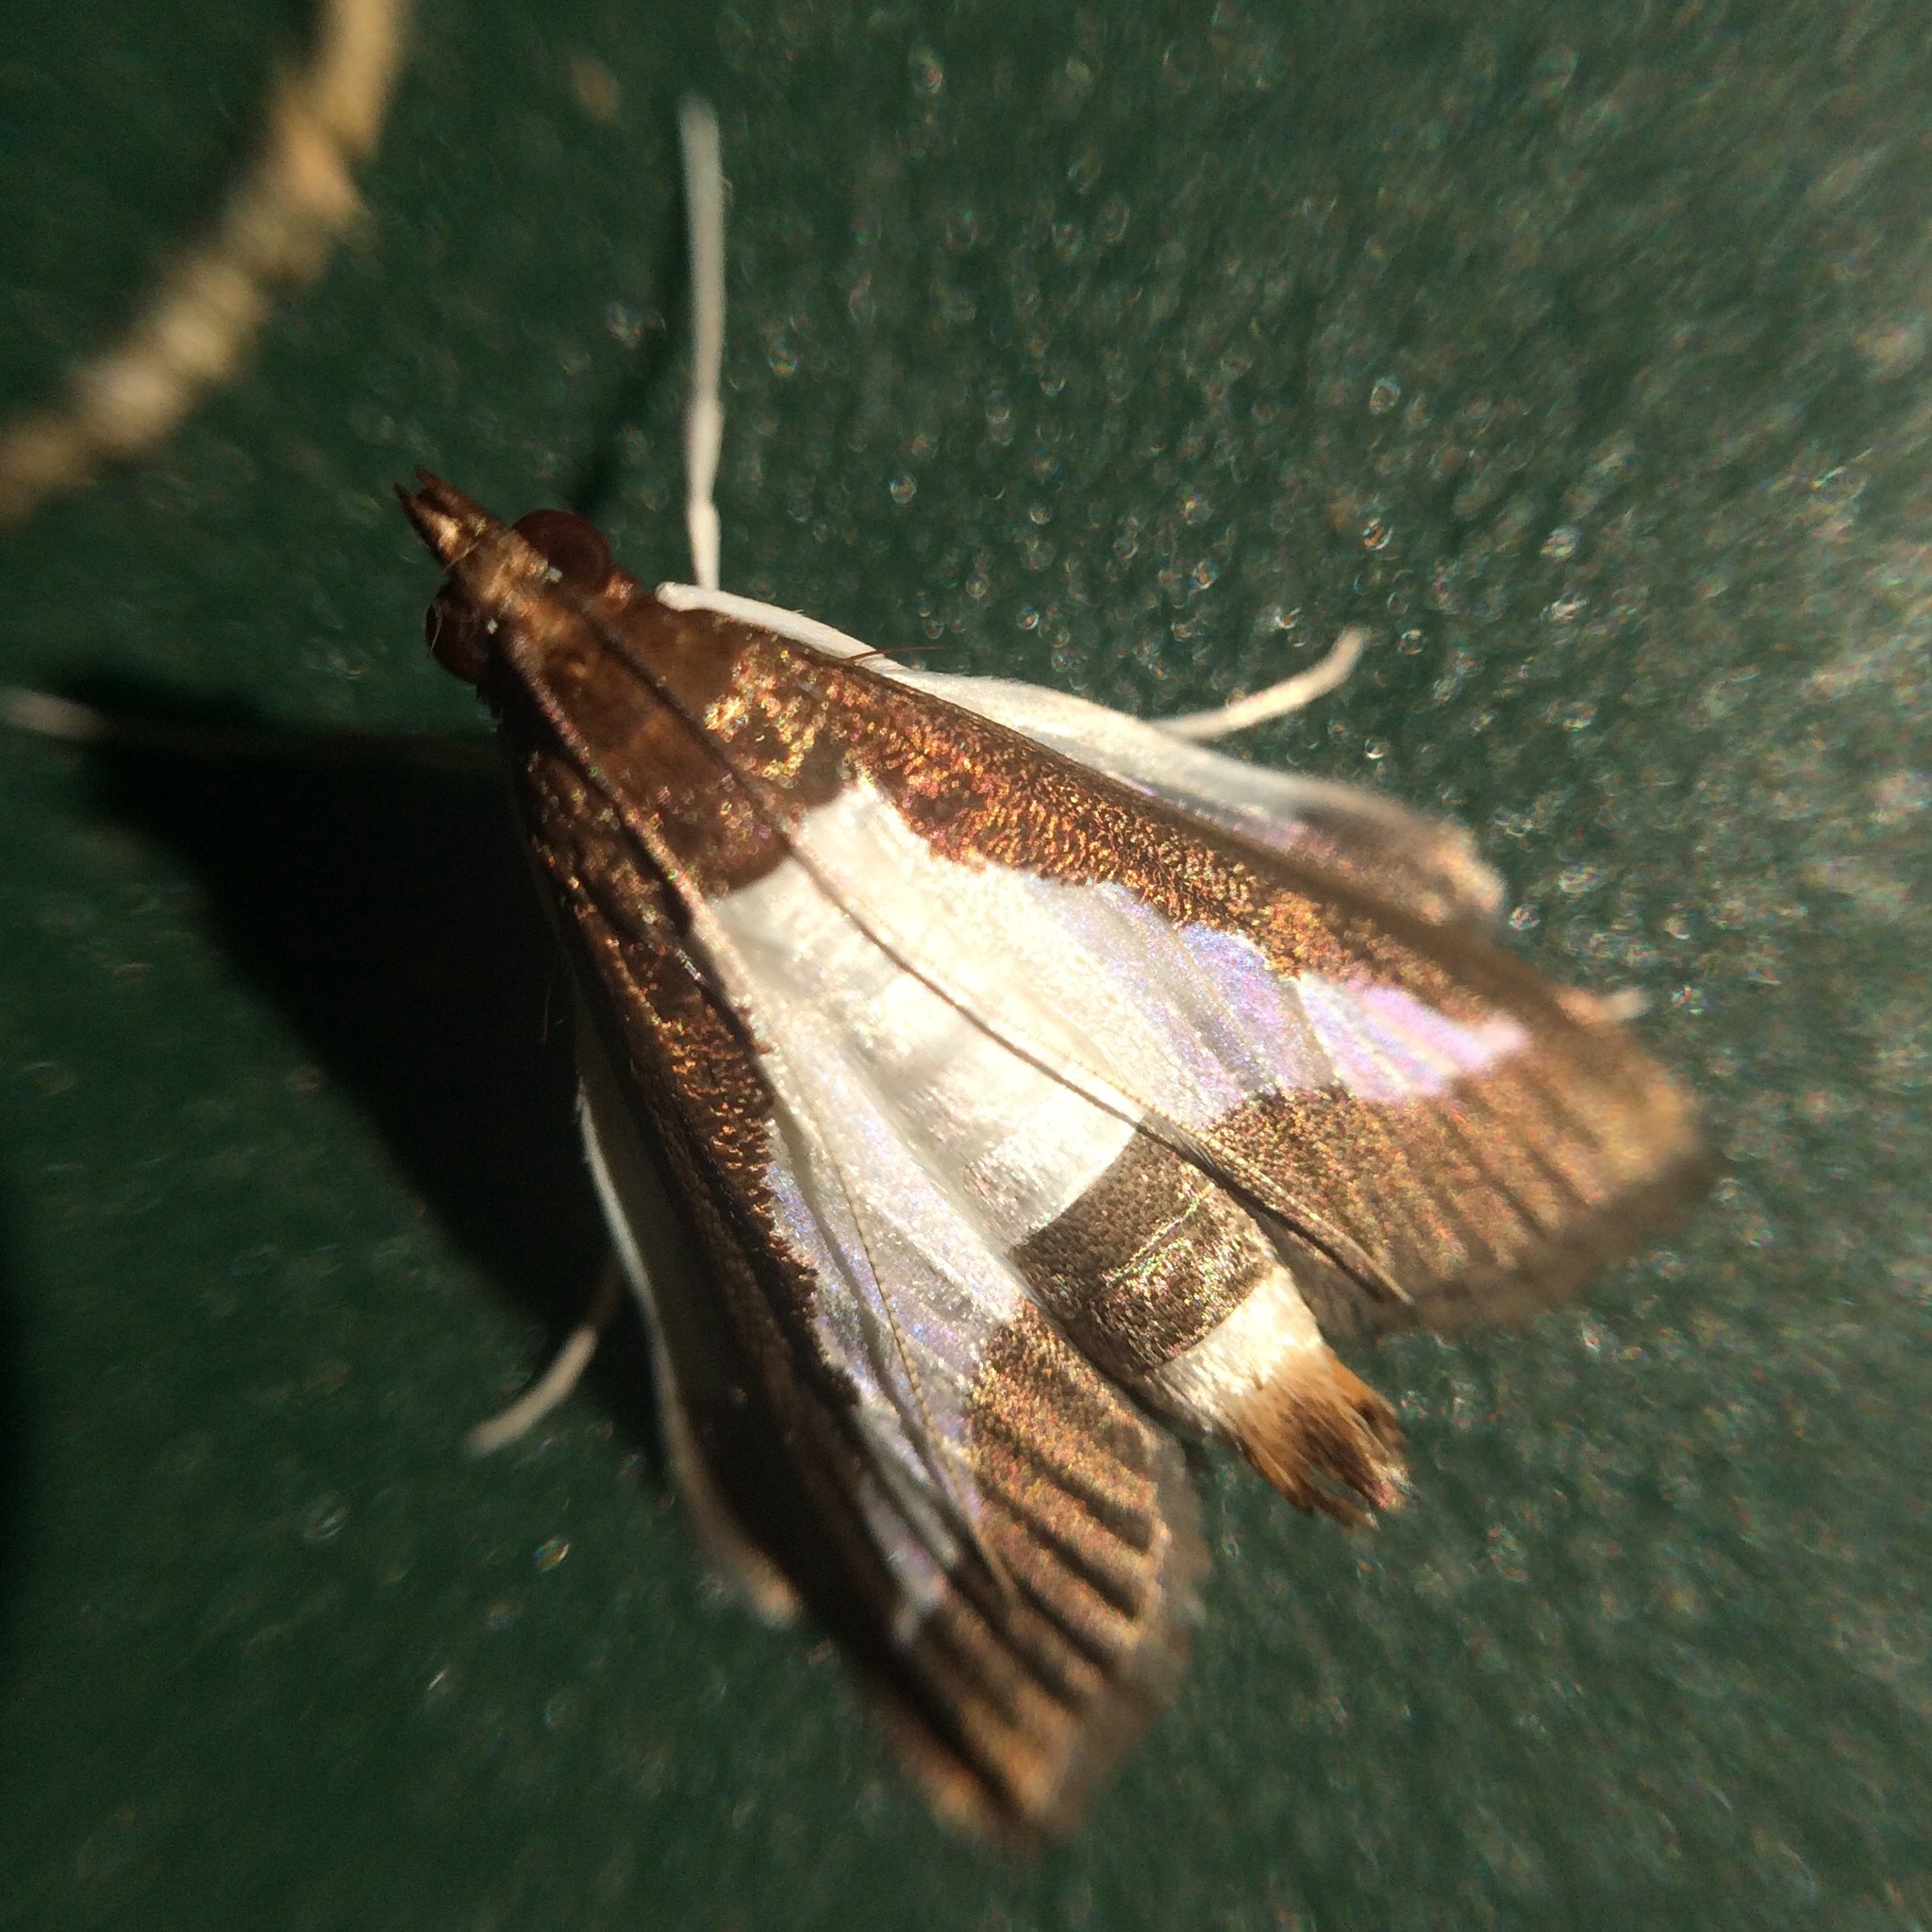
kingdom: Animalia
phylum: Arthropoda
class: Insecta
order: Lepidoptera
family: Crambidae
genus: Diaphania
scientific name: Diaphania indica
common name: Cucumber moth
